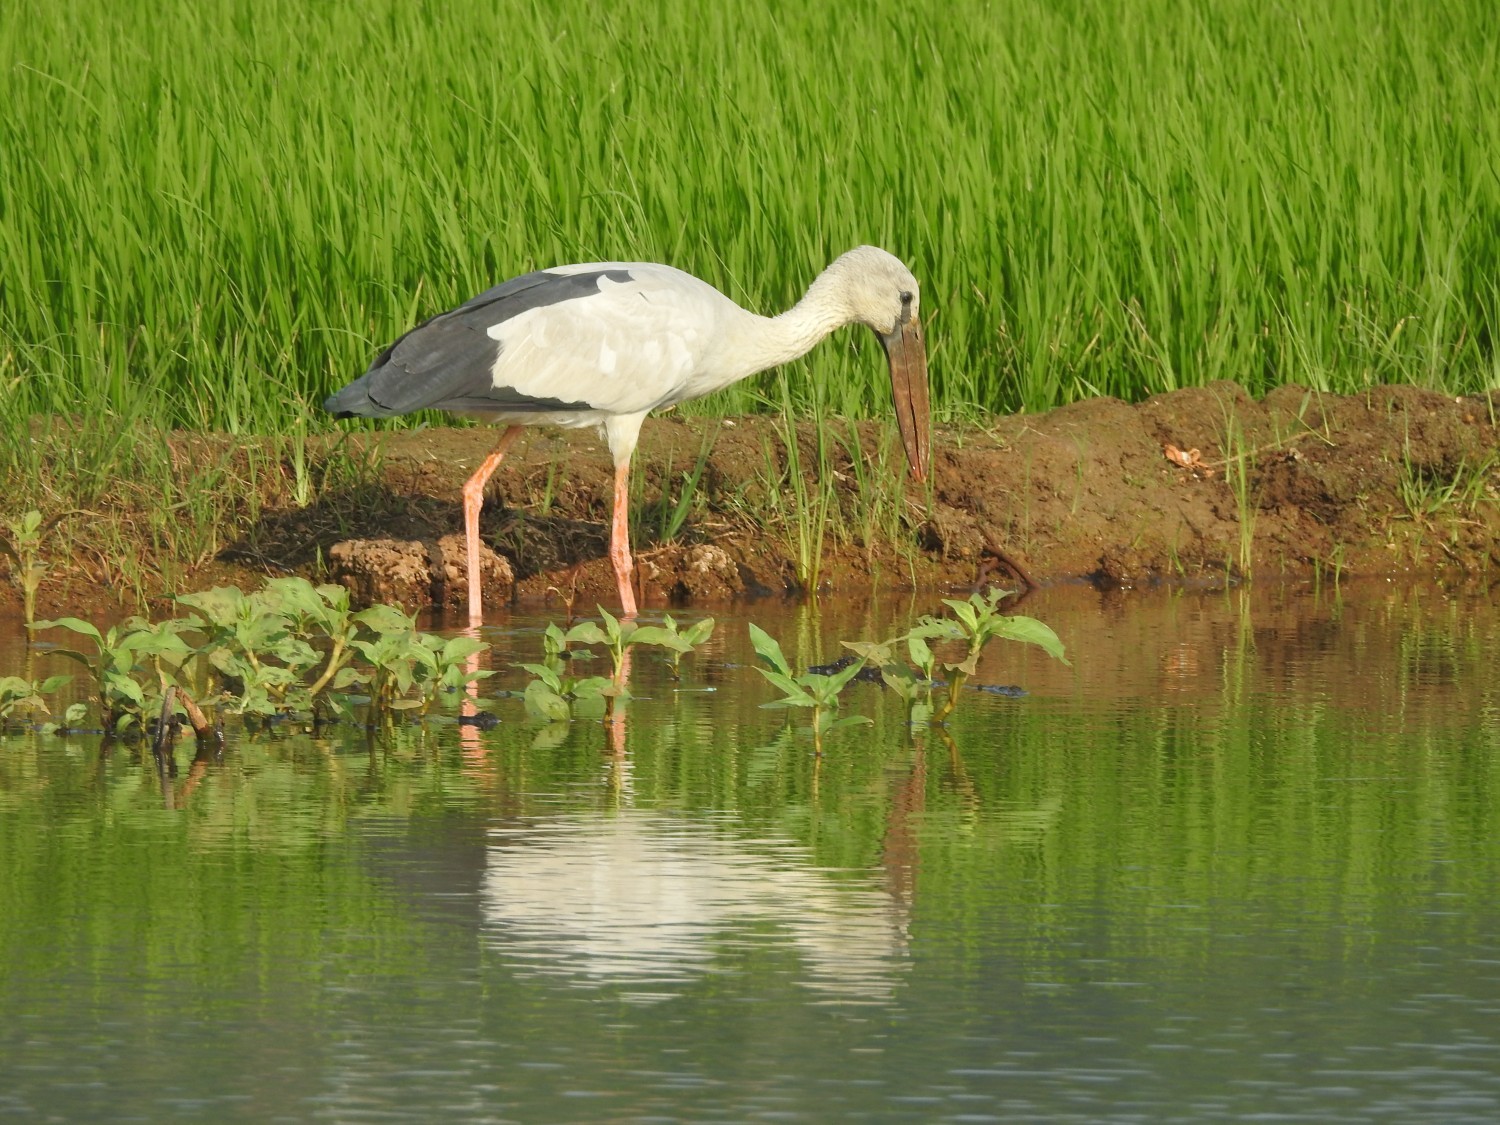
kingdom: Animalia
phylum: Chordata
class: Aves
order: Ciconiiformes
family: Ciconiidae
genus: Anastomus
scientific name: Anastomus oscitans
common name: Asian openbill
